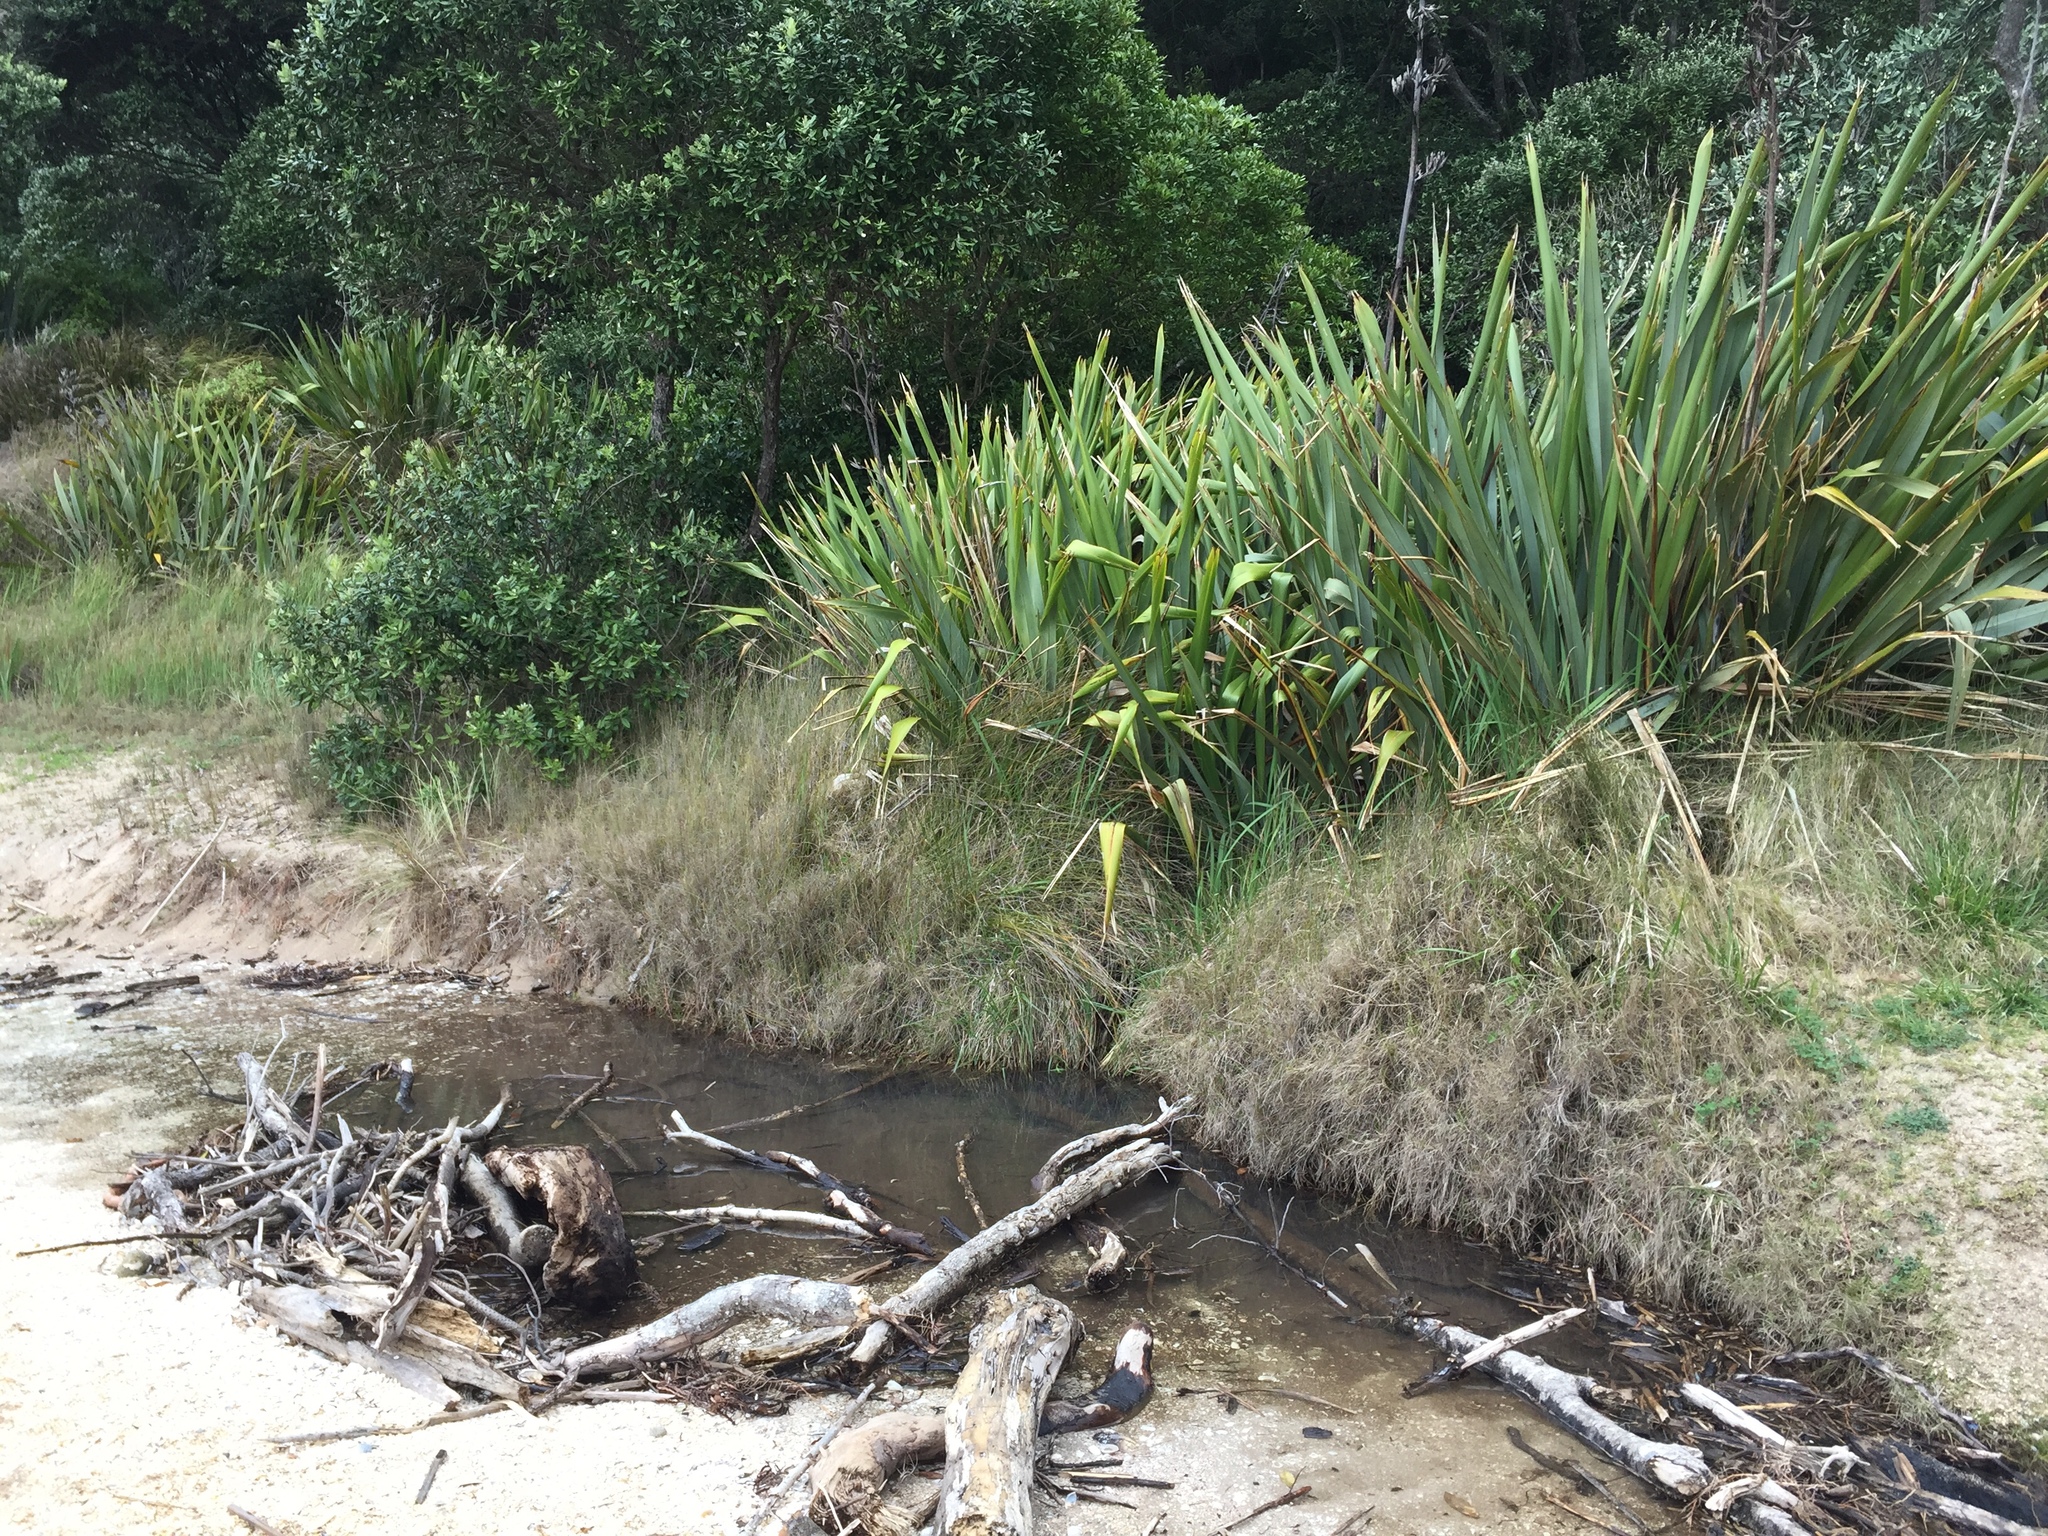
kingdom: Plantae
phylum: Tracheophyta
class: Liliopsida
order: Asparagales
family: Asphodelaceae
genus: Phormium
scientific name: Phormium tenax
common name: New zealand flax
